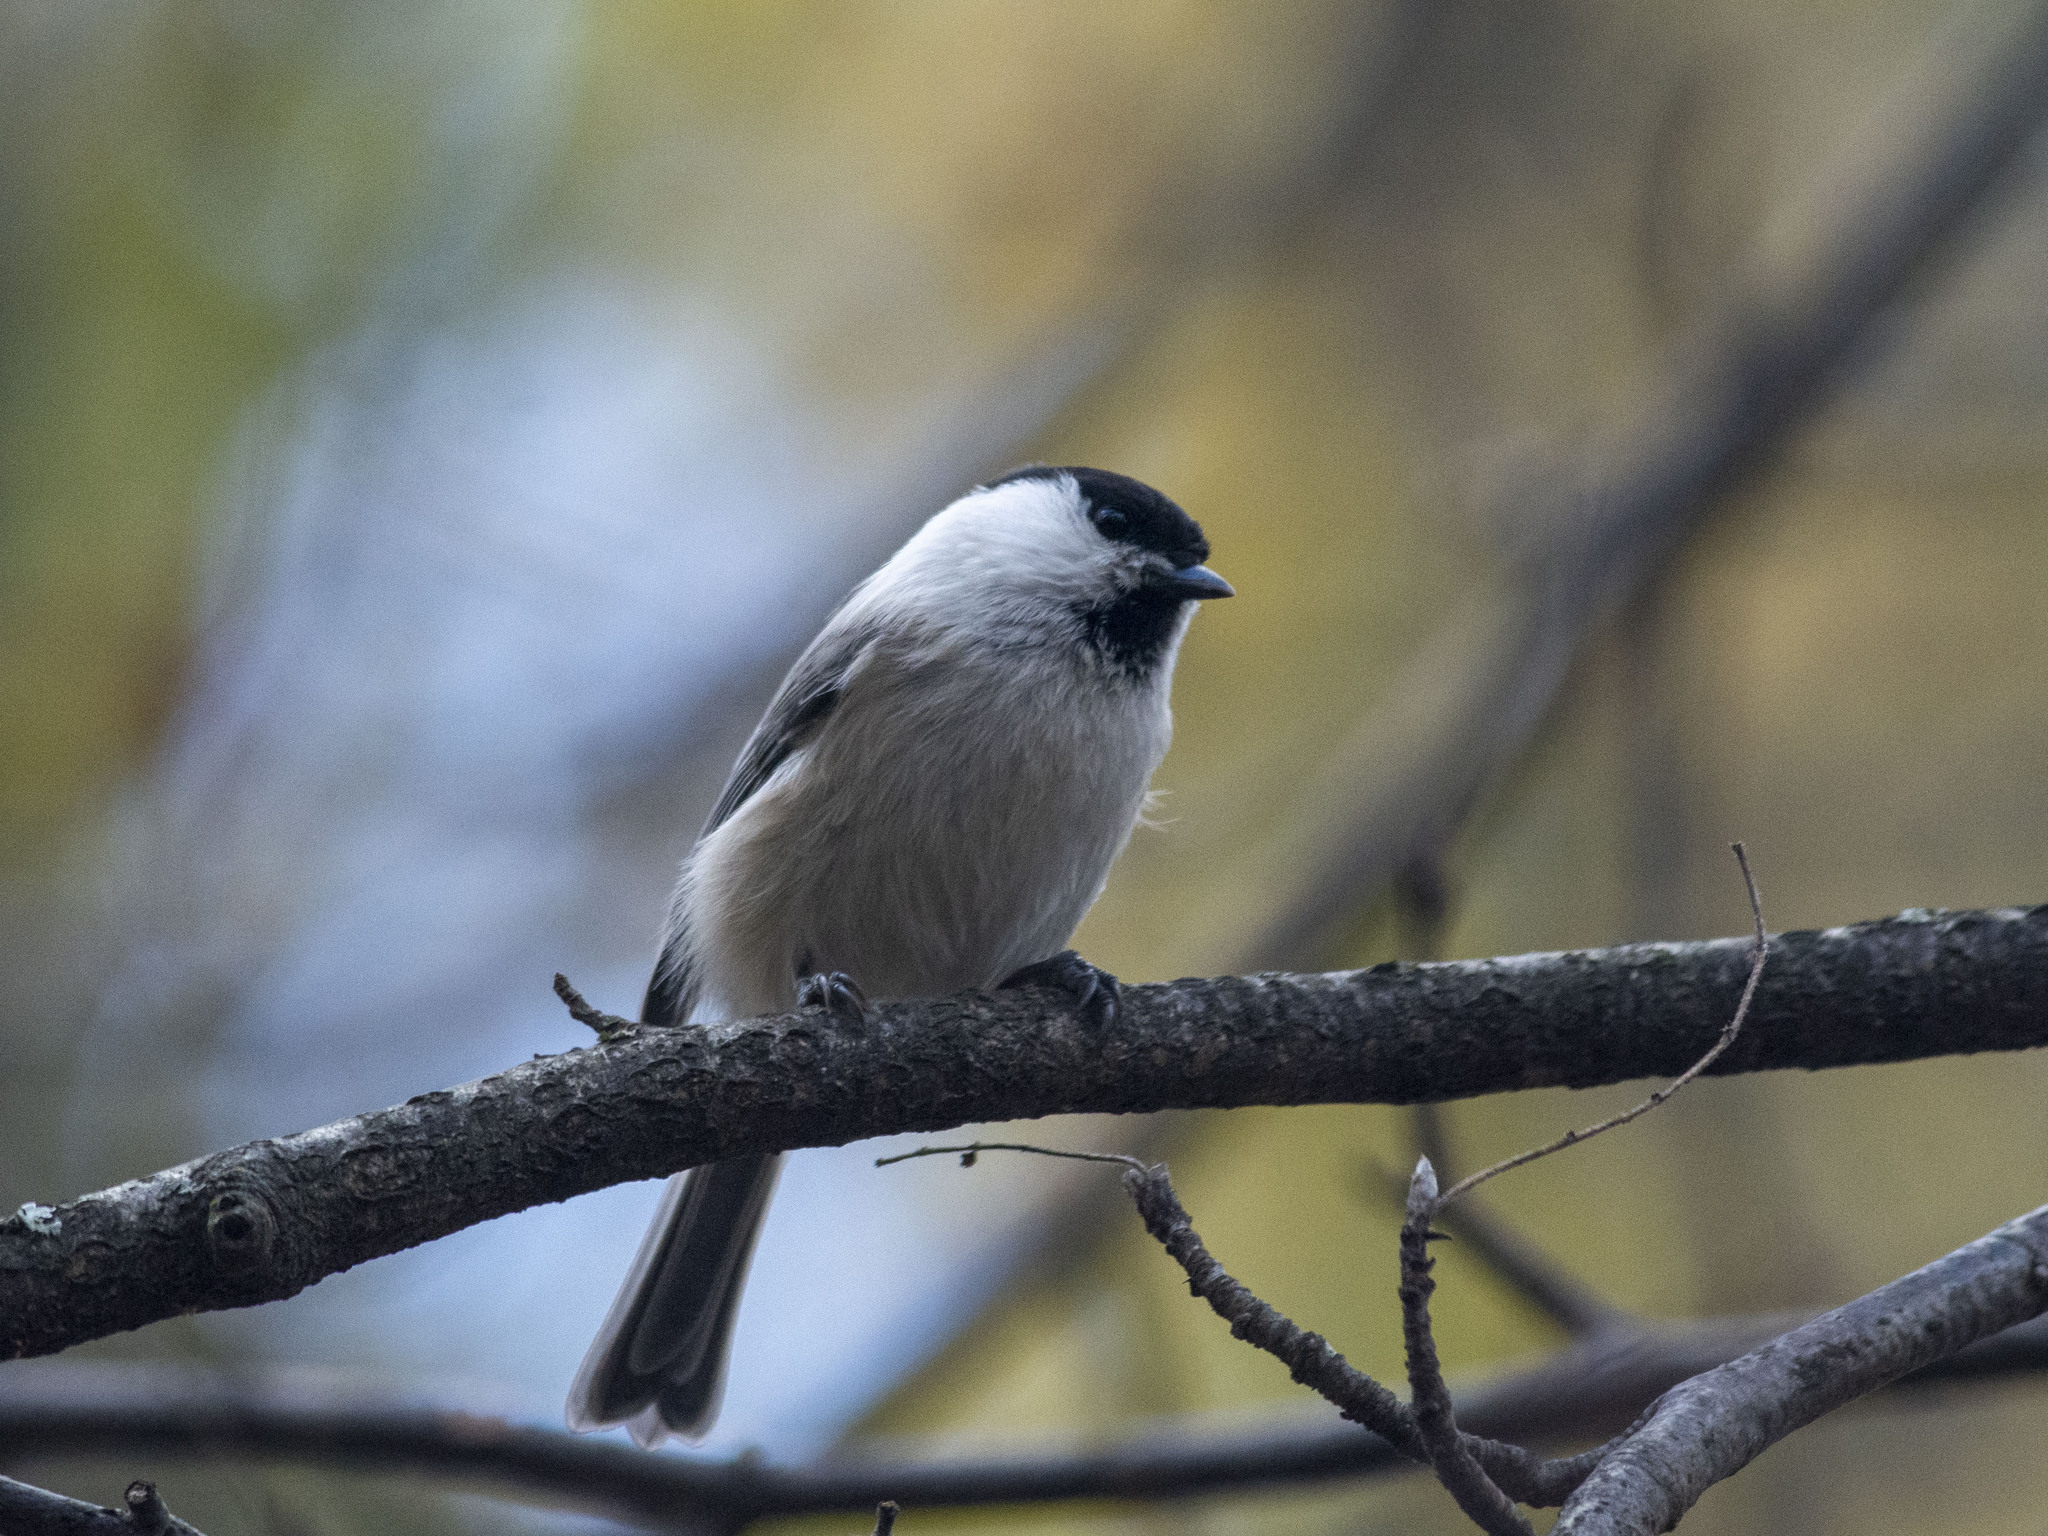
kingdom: Animalia
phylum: Chordata
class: Aves
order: Passeriformes
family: Paridae
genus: Poecile
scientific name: Poecile montanus
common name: Willow tit
